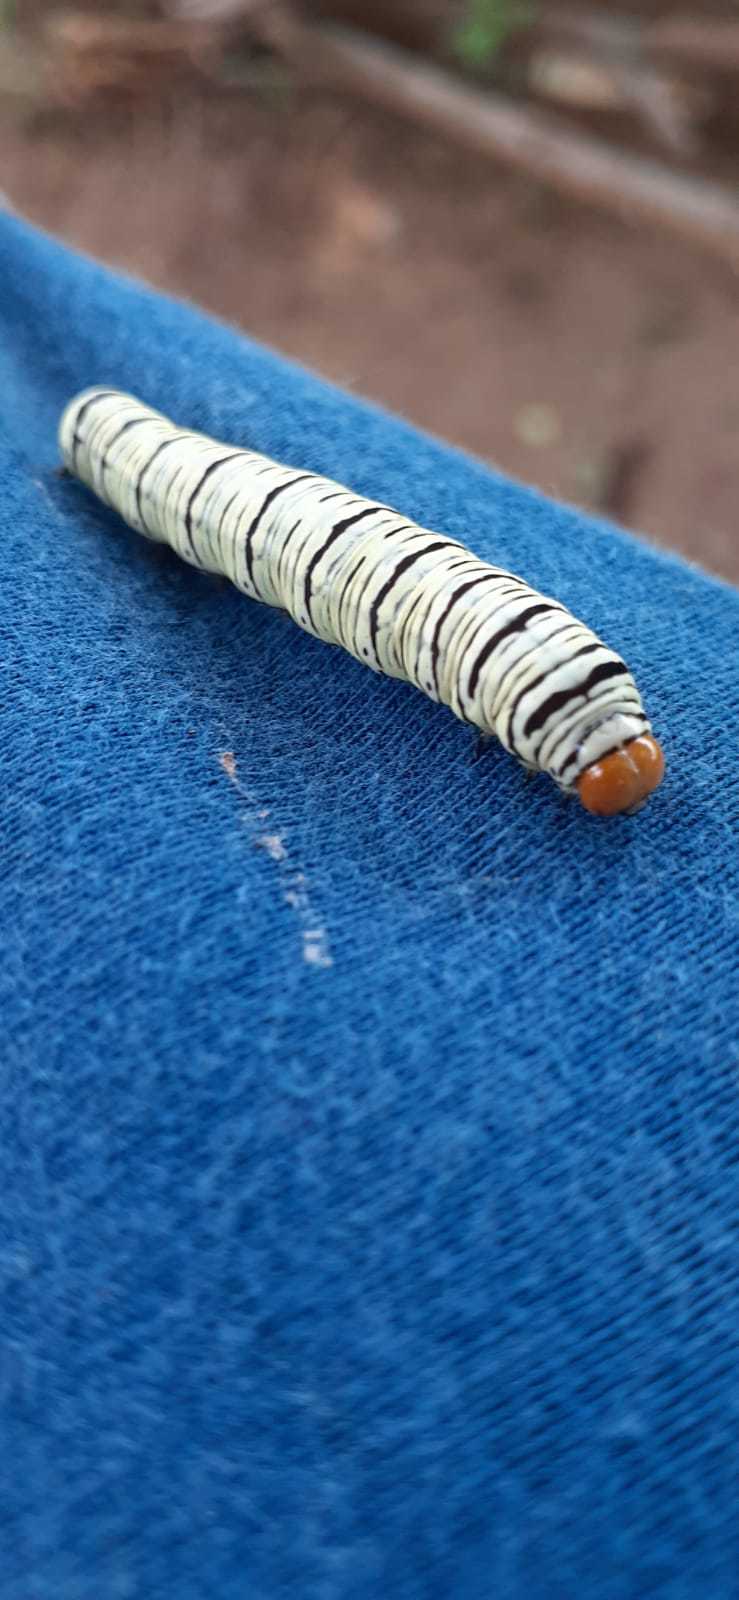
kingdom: Animalia
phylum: Arthropoda
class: Insecta
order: Lepidoptera
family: Erebidae
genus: Diphthera
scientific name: Diphthera festiva
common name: Hieroglyphic moth
